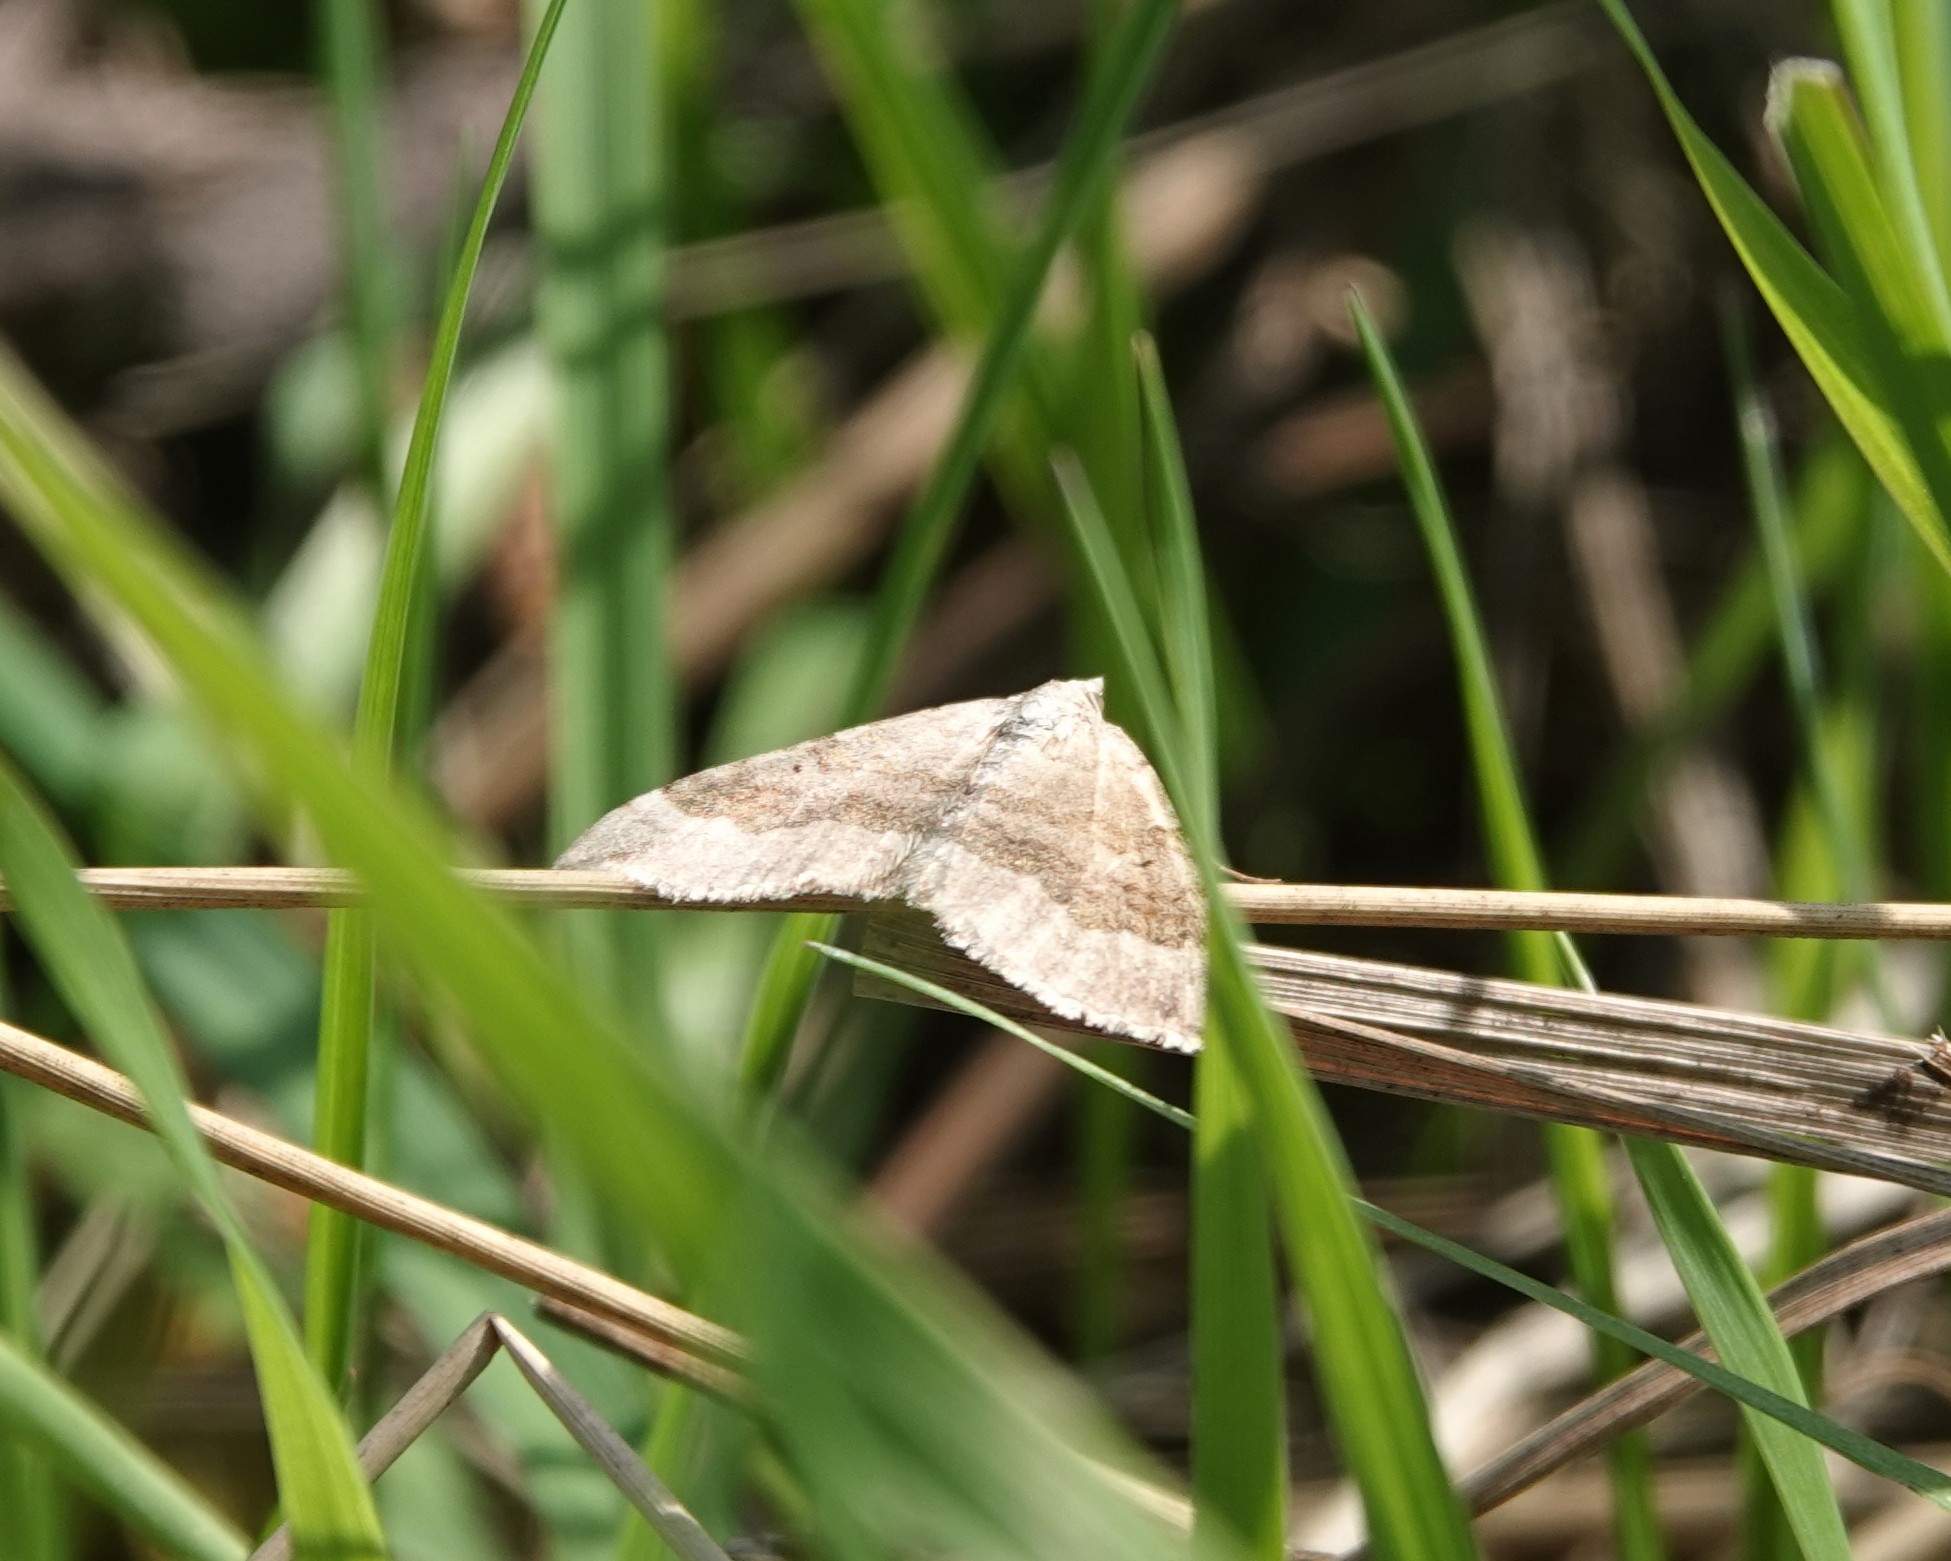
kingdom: Animalia
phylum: Arthropoda
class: Insecta
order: Lepidoptera
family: Geometridae
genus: Scotopteryx
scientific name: Scotopteryx chenopodiata
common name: Shaded broad-bar
